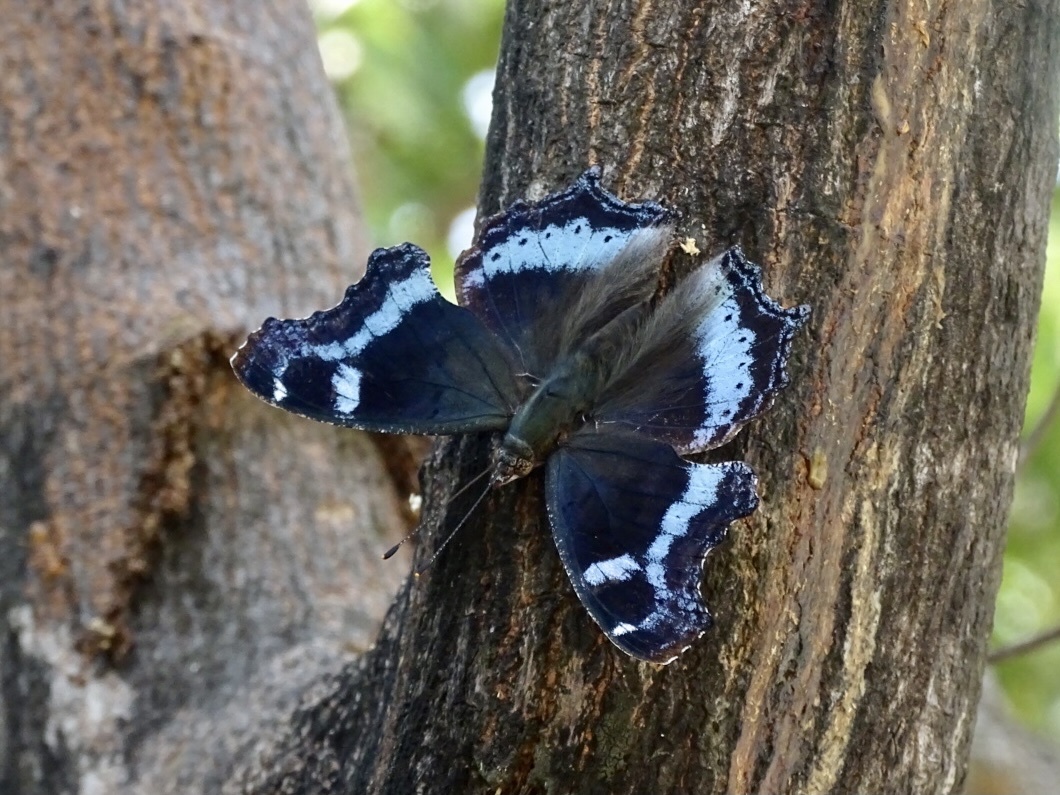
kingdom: Animalia
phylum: Arthropoda
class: Insecta
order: Lepidoptera
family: Nymphalidae
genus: Vanessa
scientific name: Vanessa Kaniska canace
